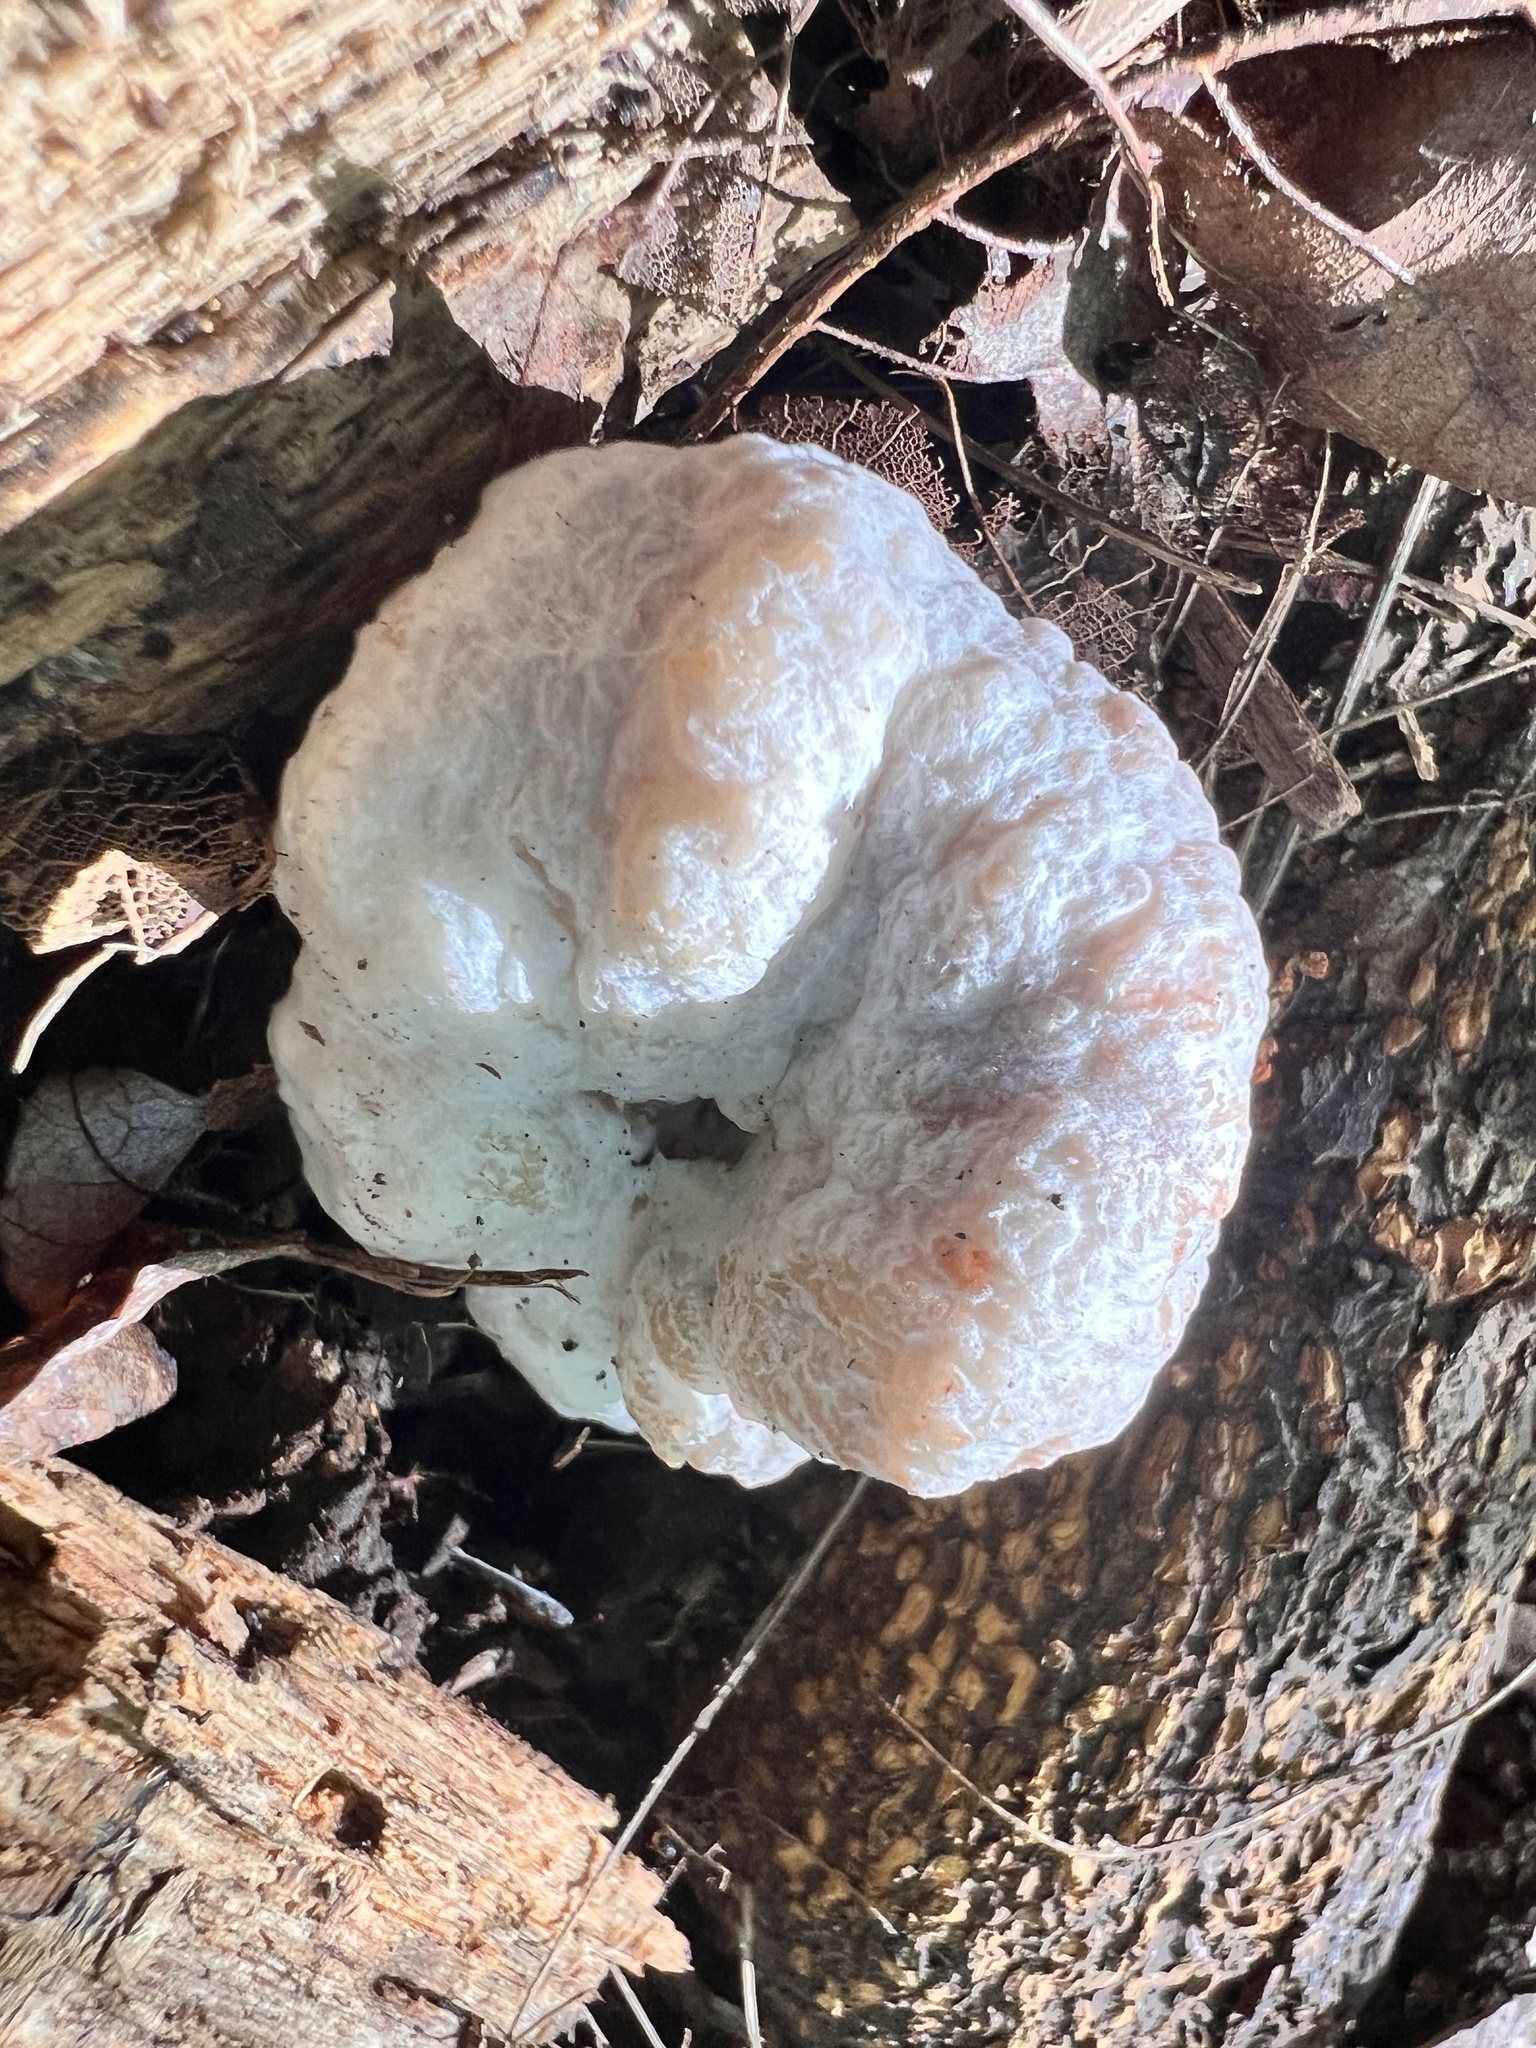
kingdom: Fungi
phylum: Basidiomycota
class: Agaricomycetes
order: Agaricales
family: Entolomataceae
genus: Entoloma
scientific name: Entoloma abortivum
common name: Aborted entoloma
